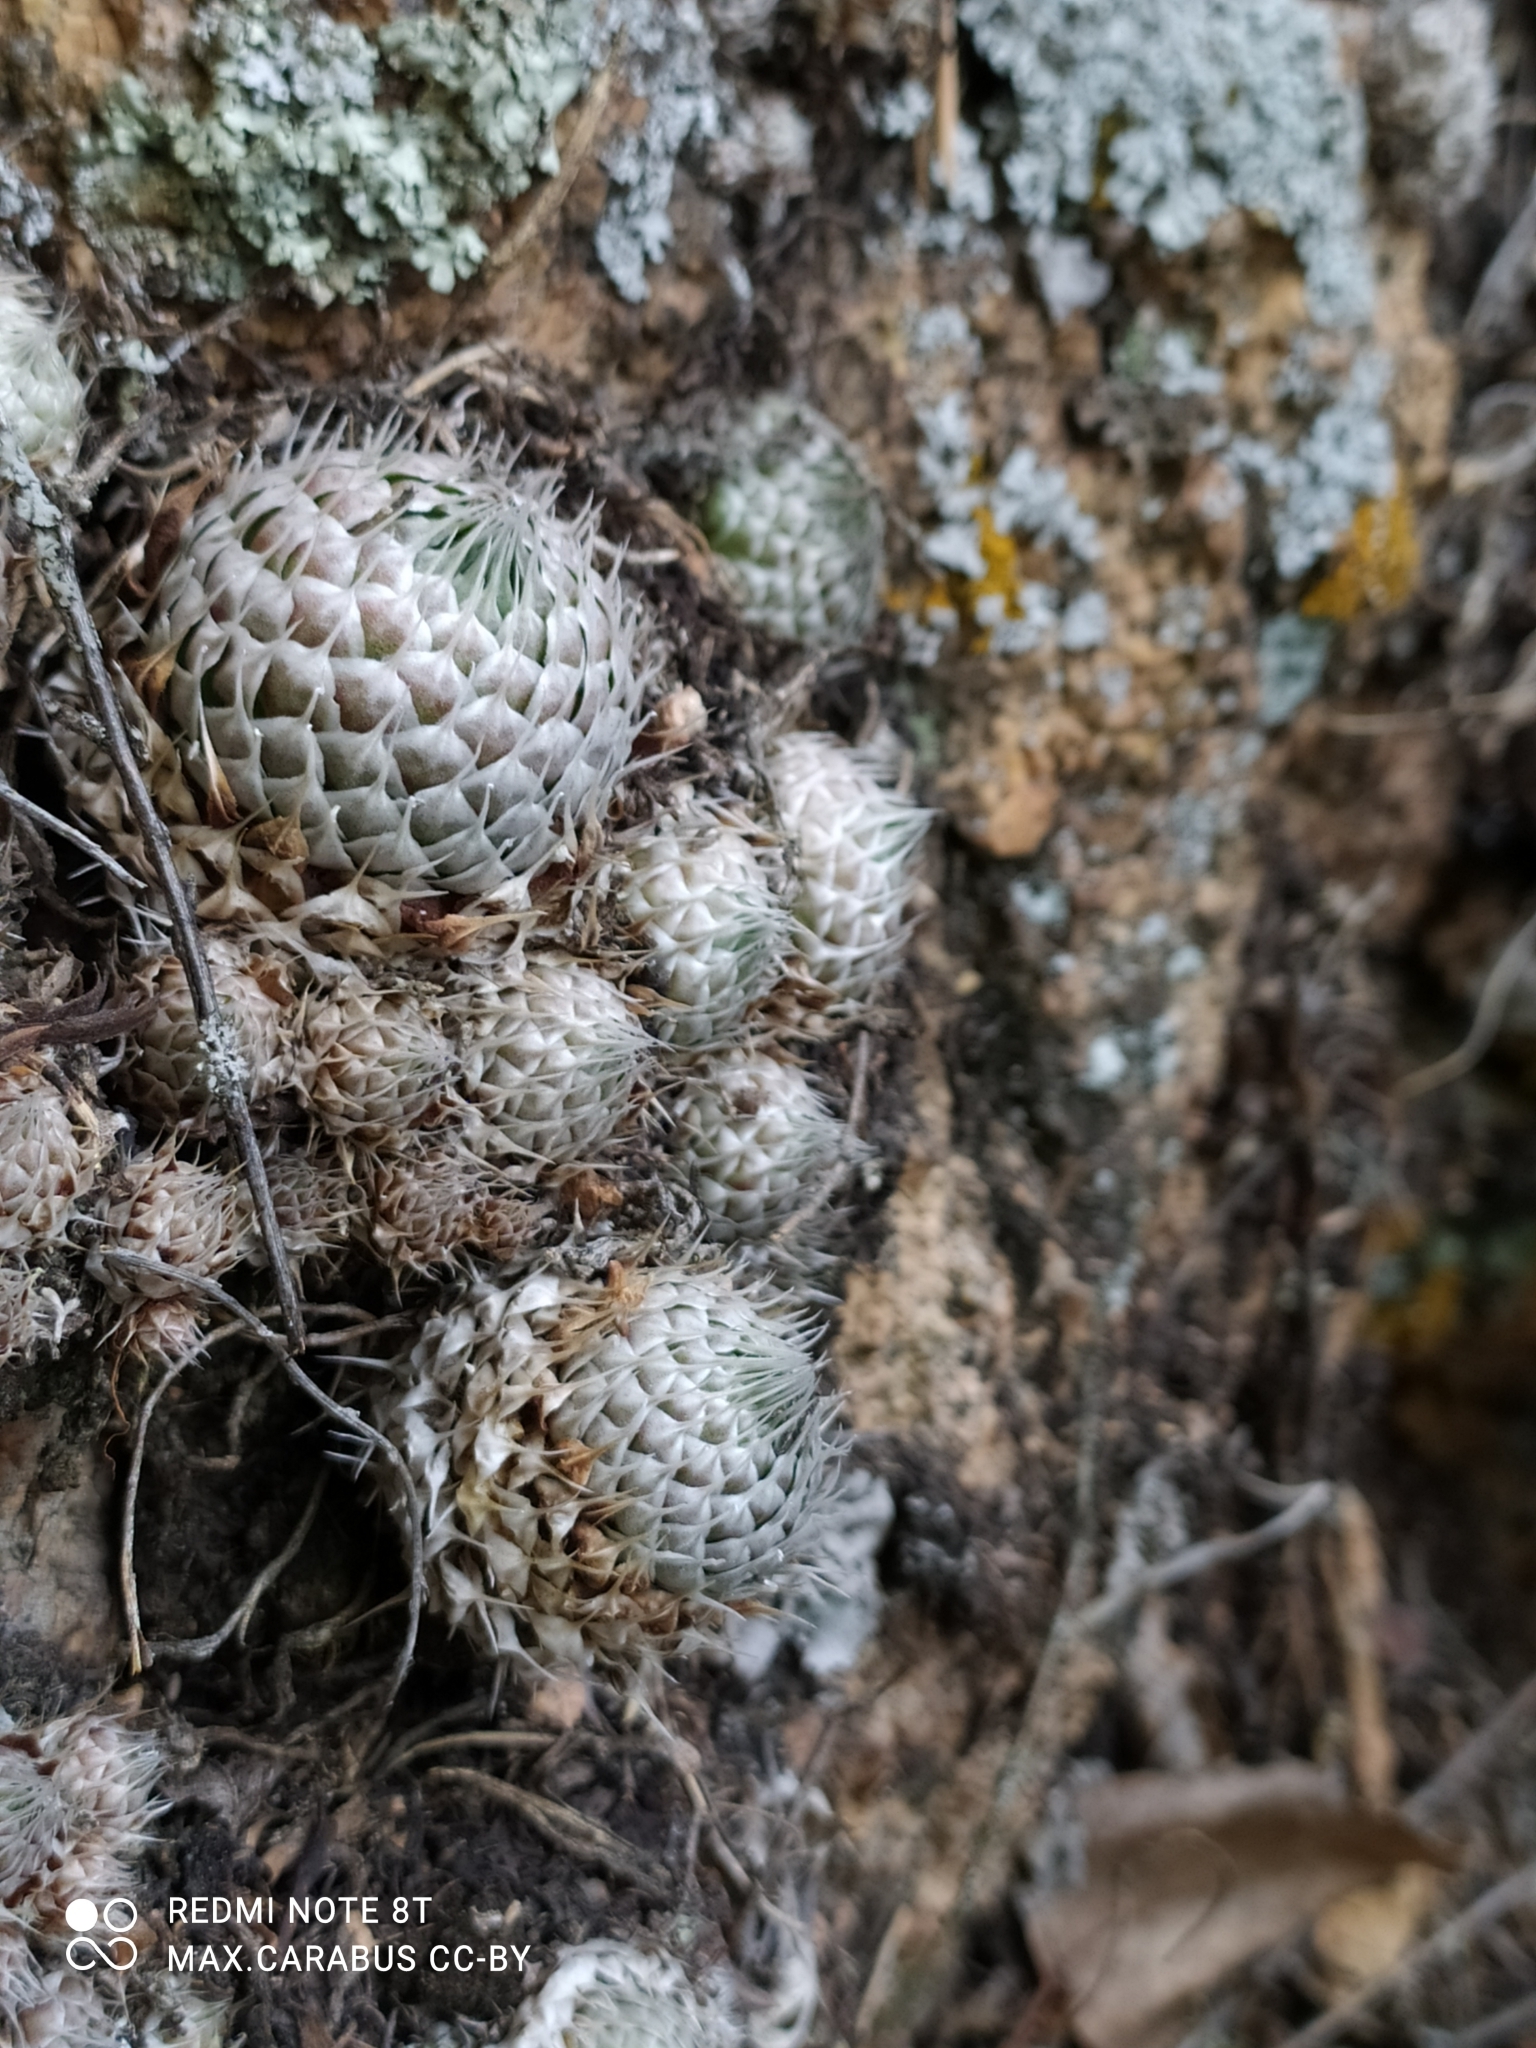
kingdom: Plantae
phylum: Tracheophyta
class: Magnoliopsida
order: Saxifragales
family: Crassulaceae
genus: Orostachys
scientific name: Orostachys spinosa
